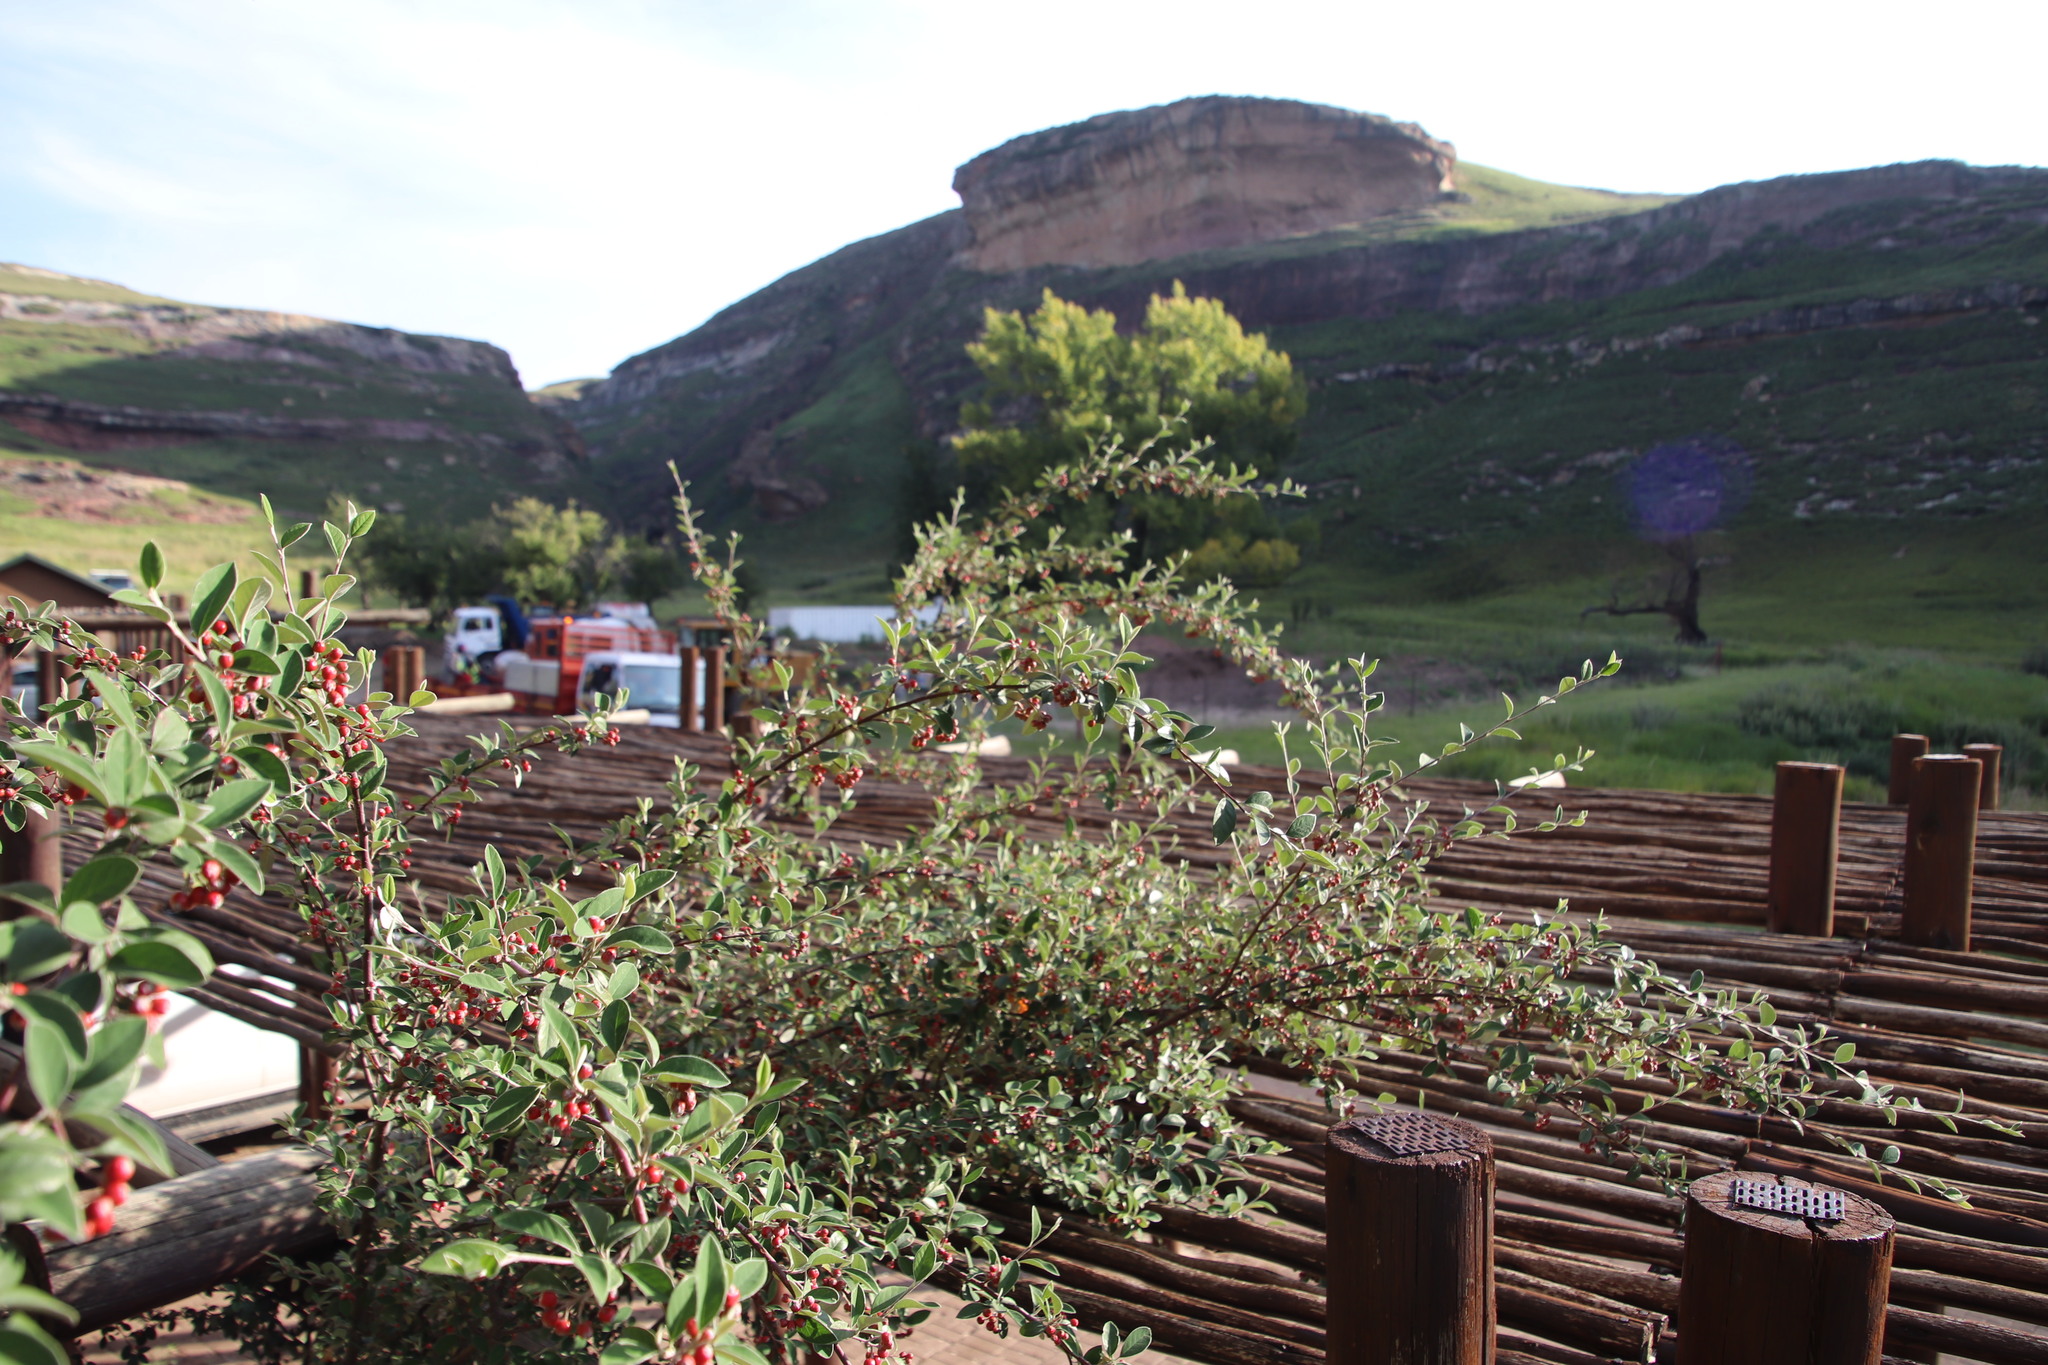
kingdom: Plantae
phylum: Tracheophyta
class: Magnoliopsida
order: Rosales
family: Rosaceae
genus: Cotoneaster
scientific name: Cotoneaster pannosus
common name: Silverleaf cotoneaster
